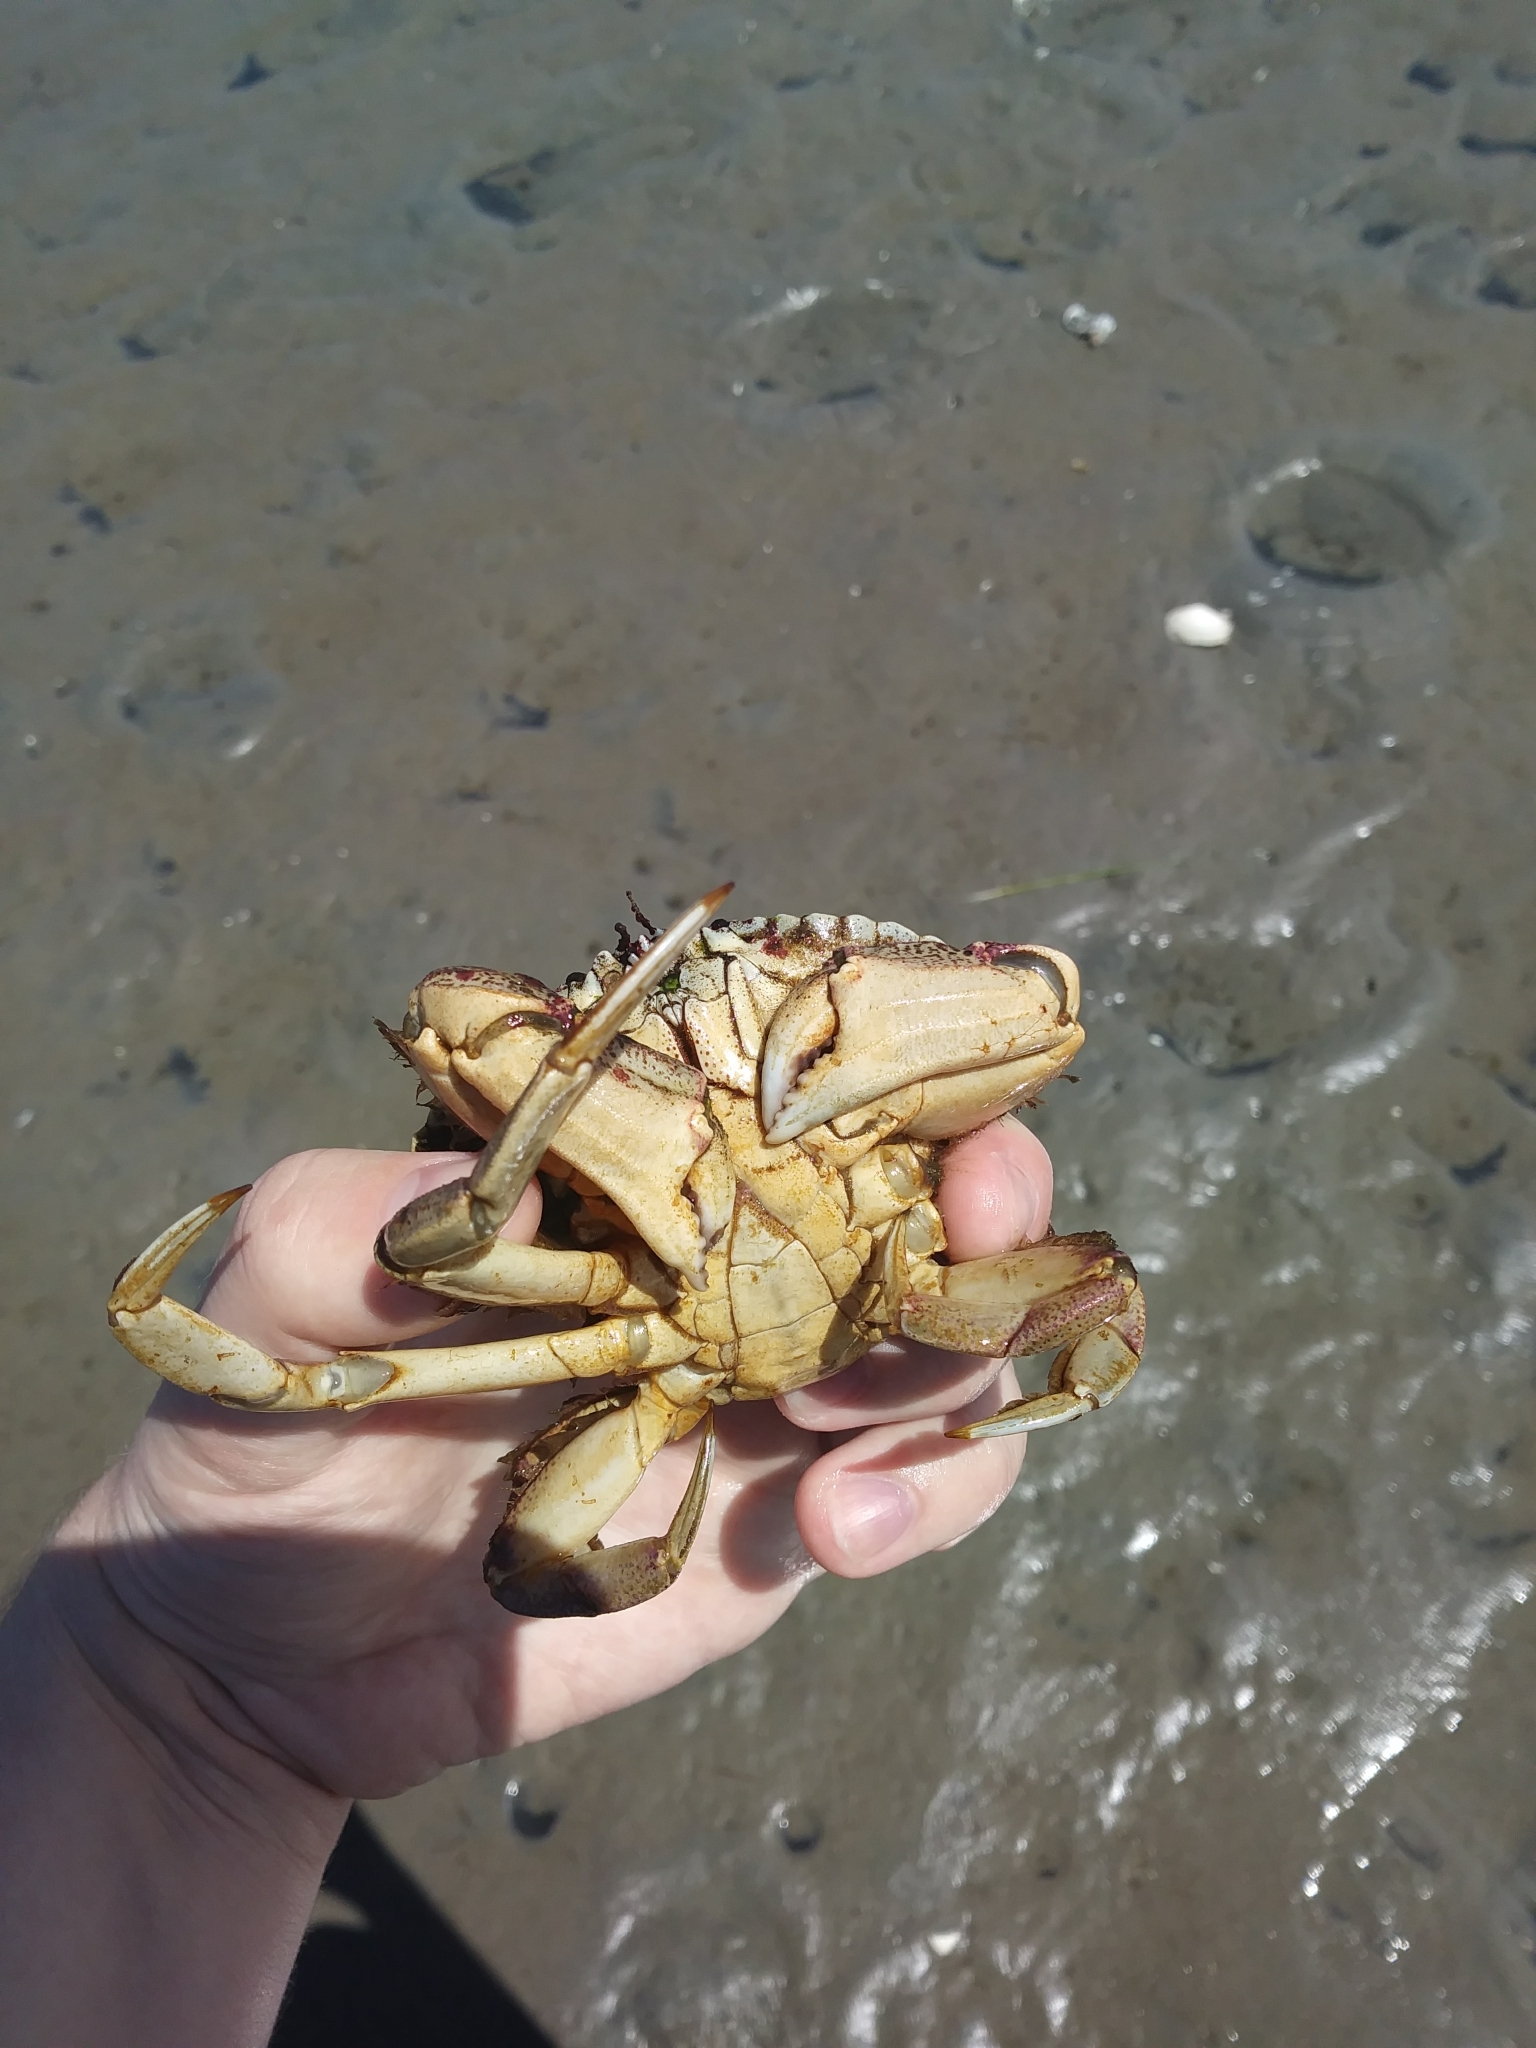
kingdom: Animalia
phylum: Arthropoda
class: Malacostraca
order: Decapoda
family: Cancridae
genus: Cancer
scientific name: Cancer irroratus
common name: Atlantic rock crab
